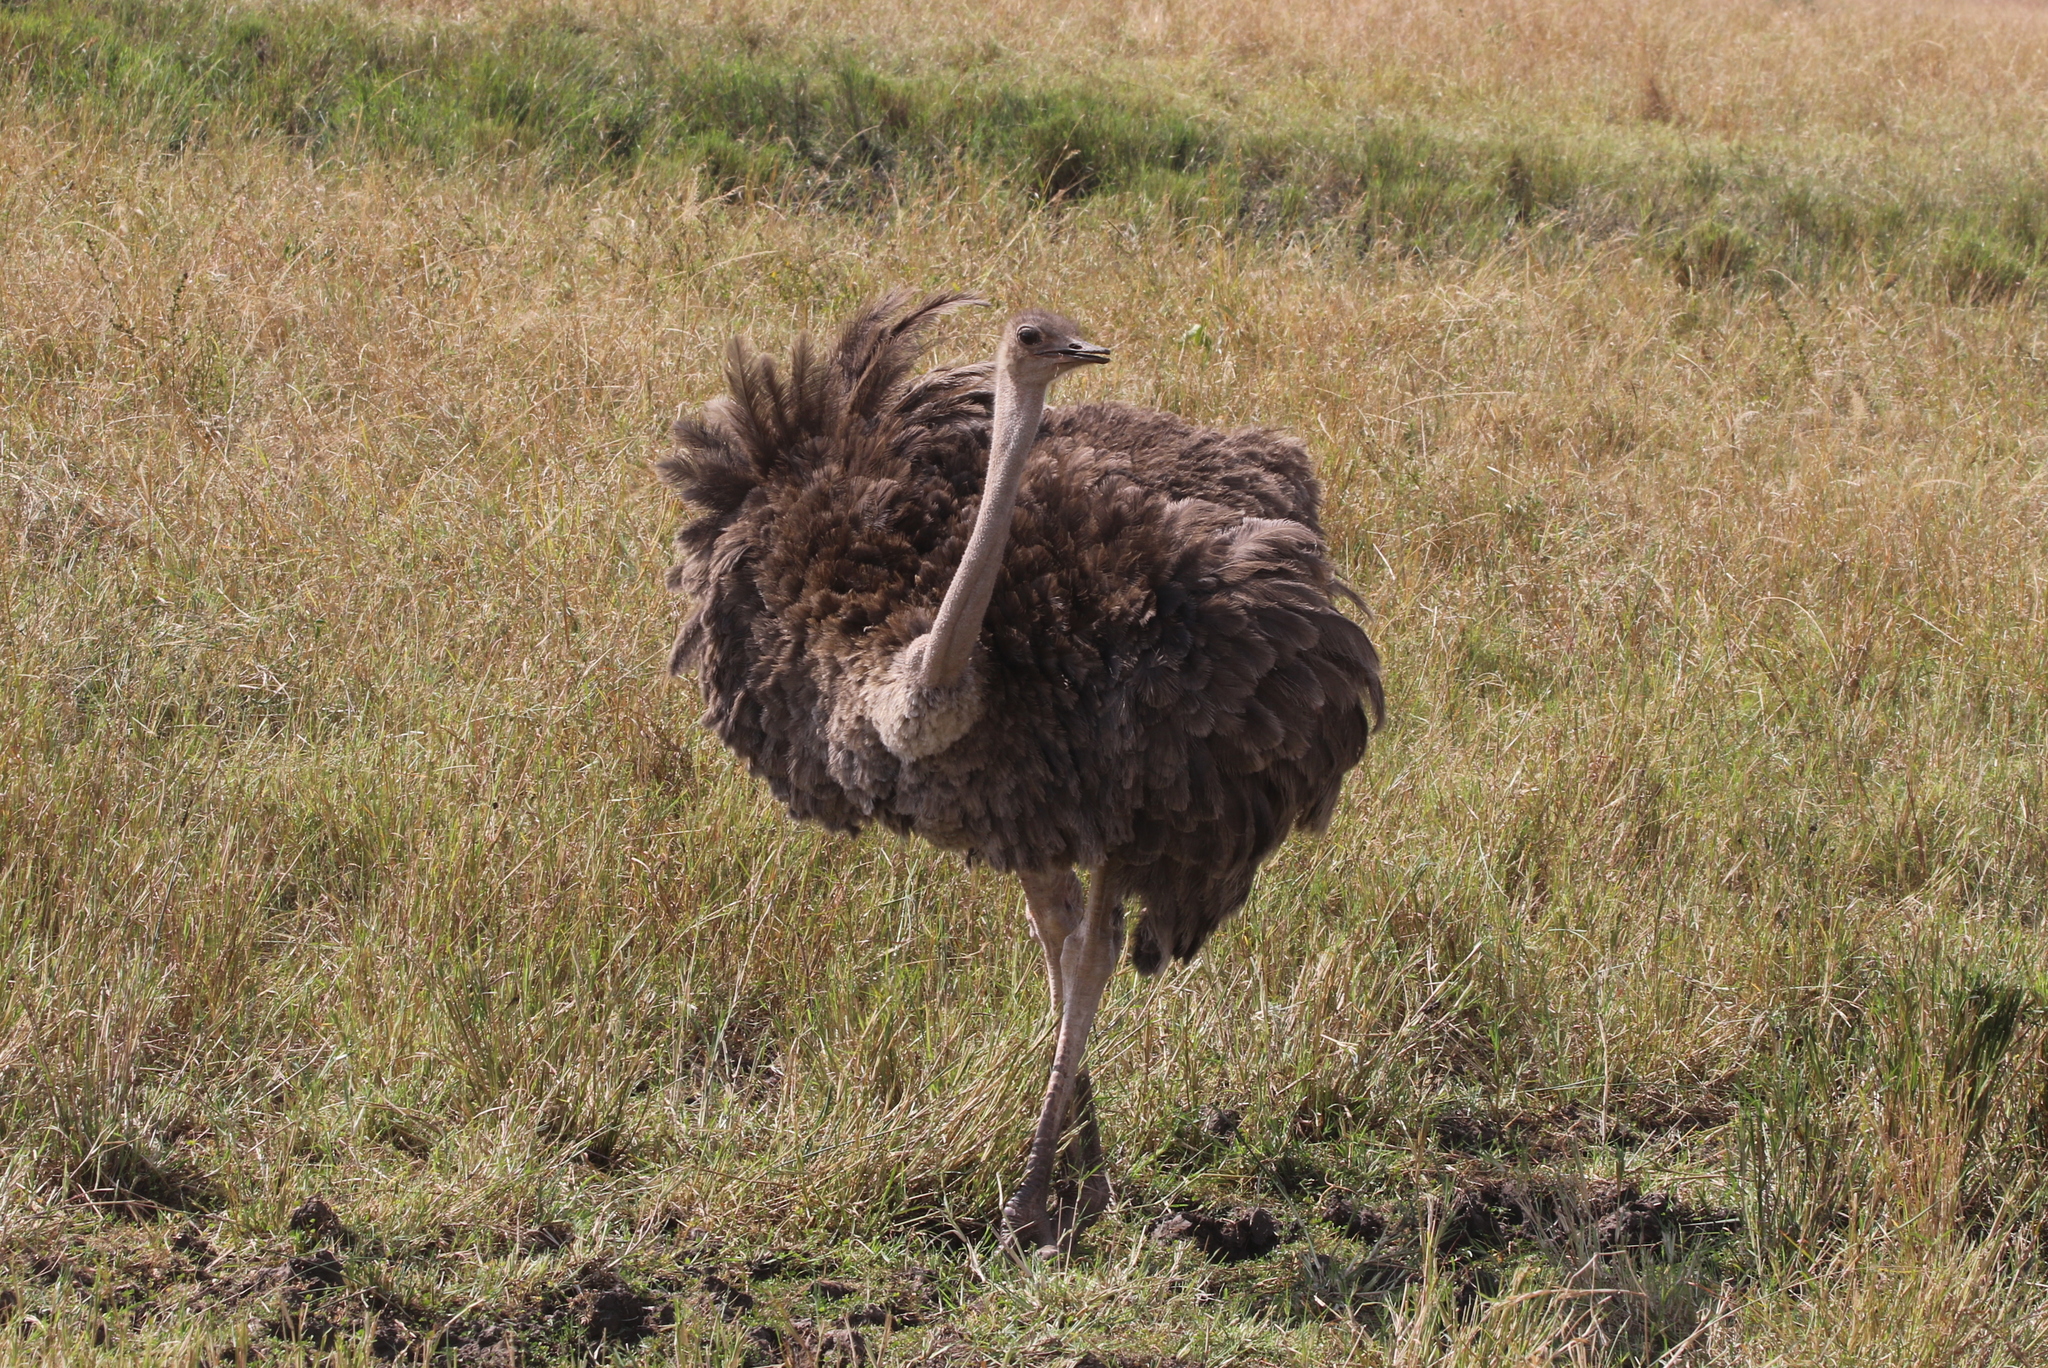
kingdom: Animalia
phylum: Chordata
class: Aves
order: Struthioniformes
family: Struthionidae
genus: Struthio
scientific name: Struthio camelus
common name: Common ostrich
